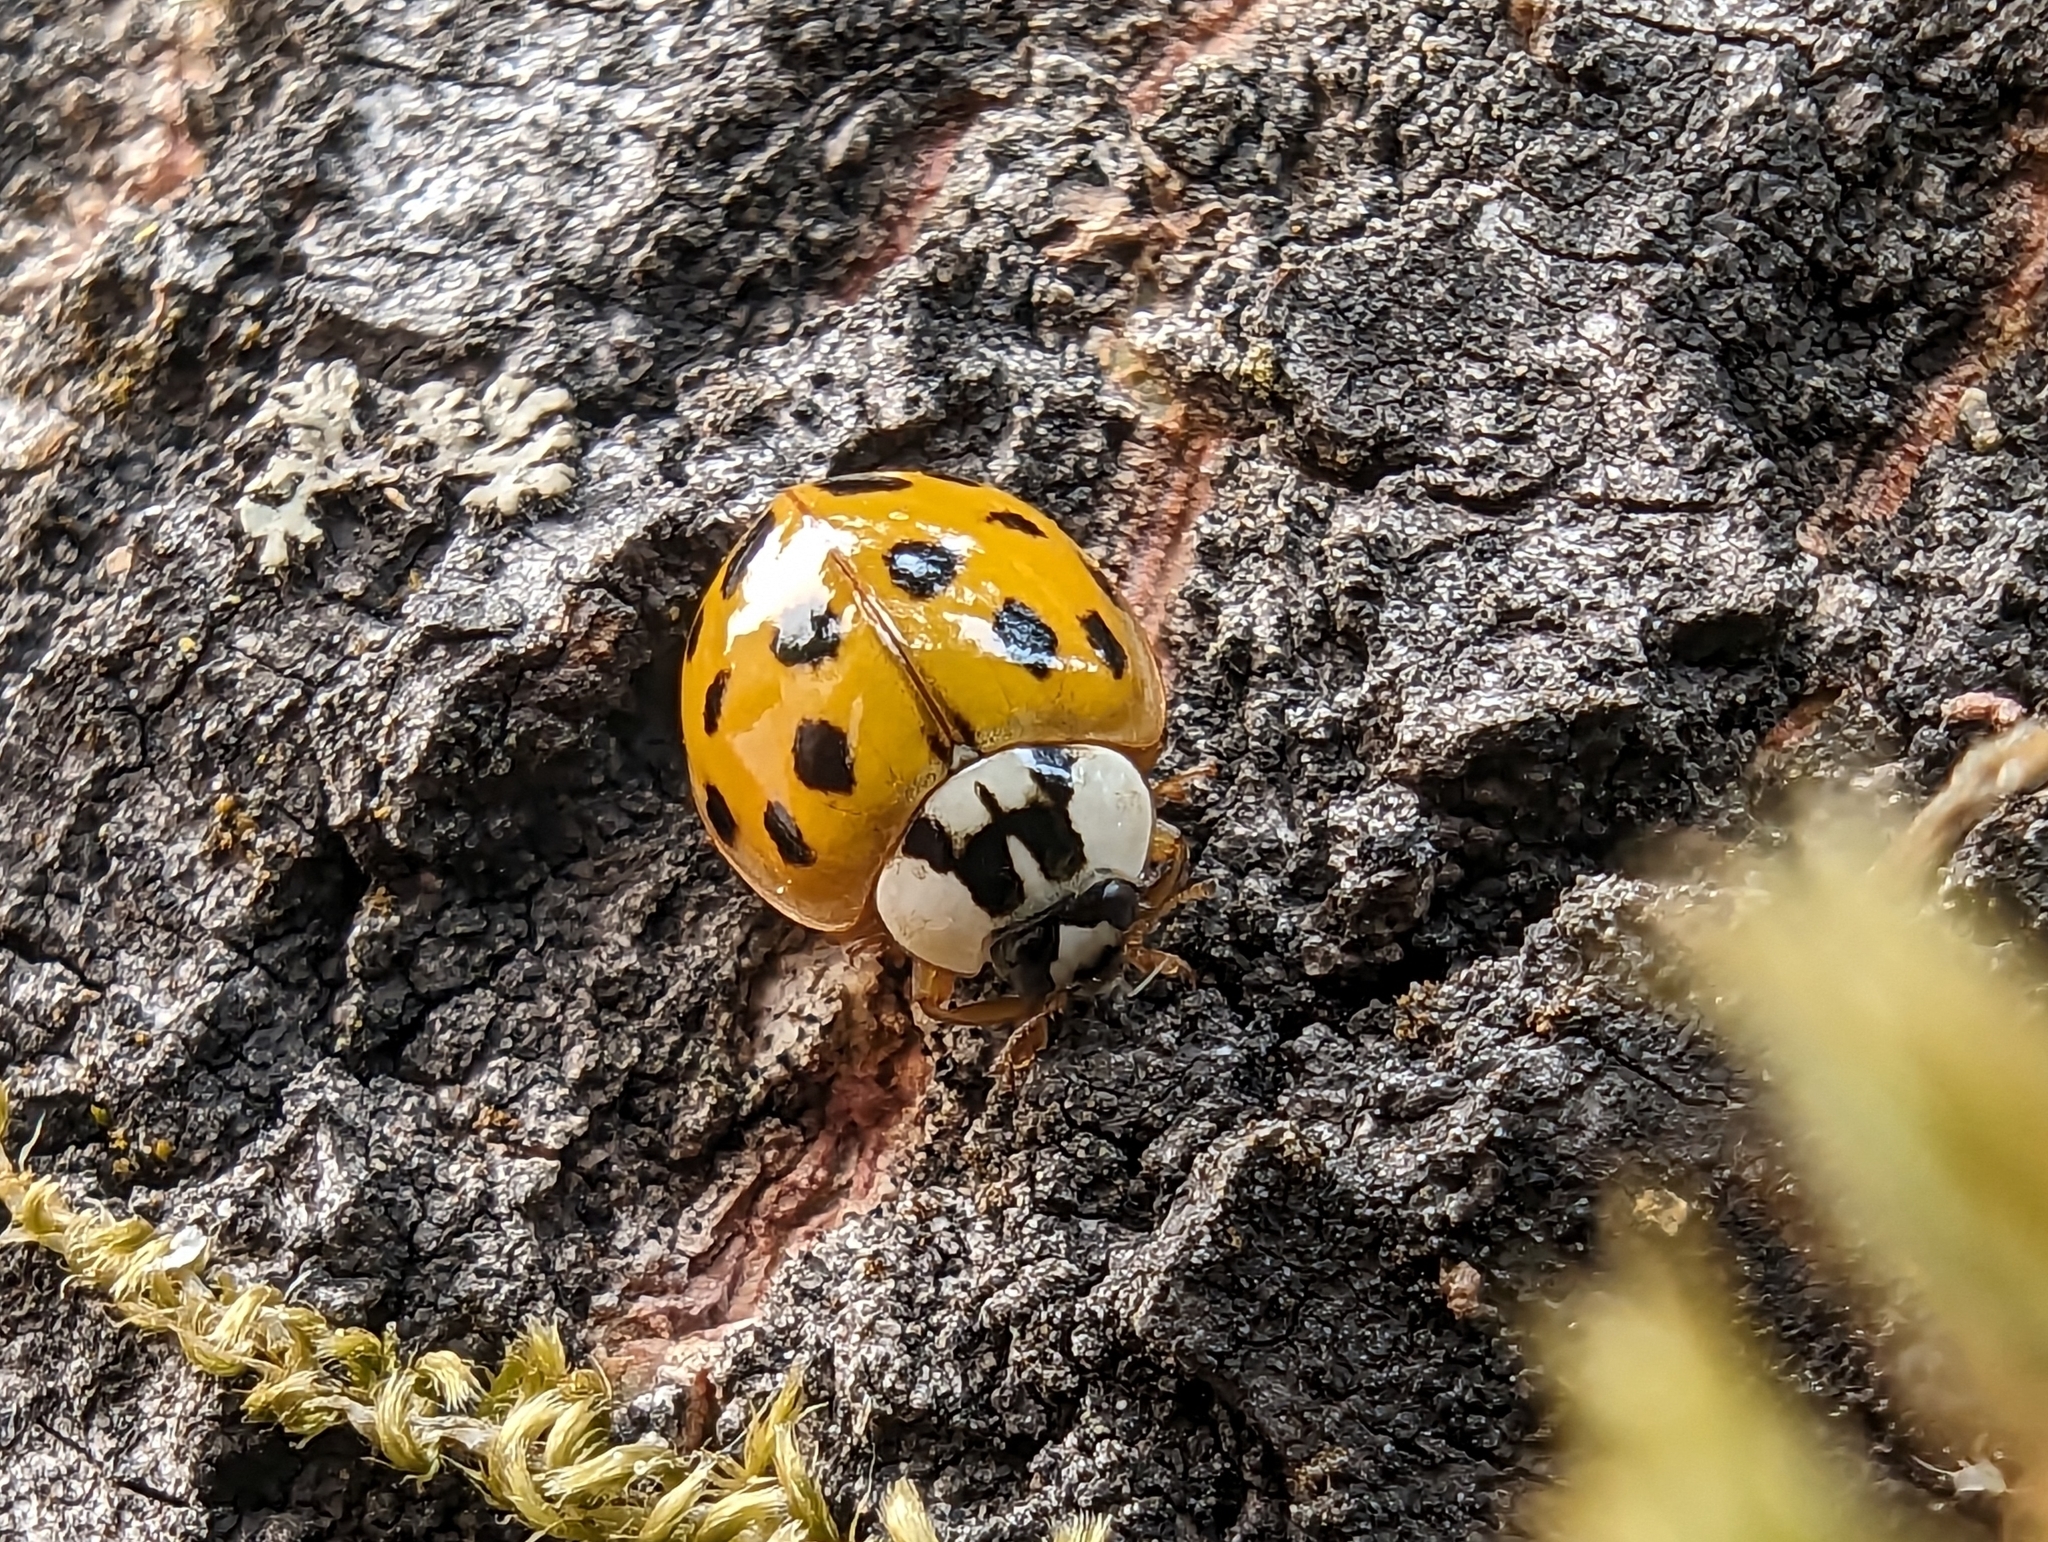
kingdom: Animalia
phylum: Arthropoda
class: Insecta
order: Coleoptera
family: Coccinellidae
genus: Harmonia
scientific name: Harmonia axyridis
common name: Harlequin ladybird
